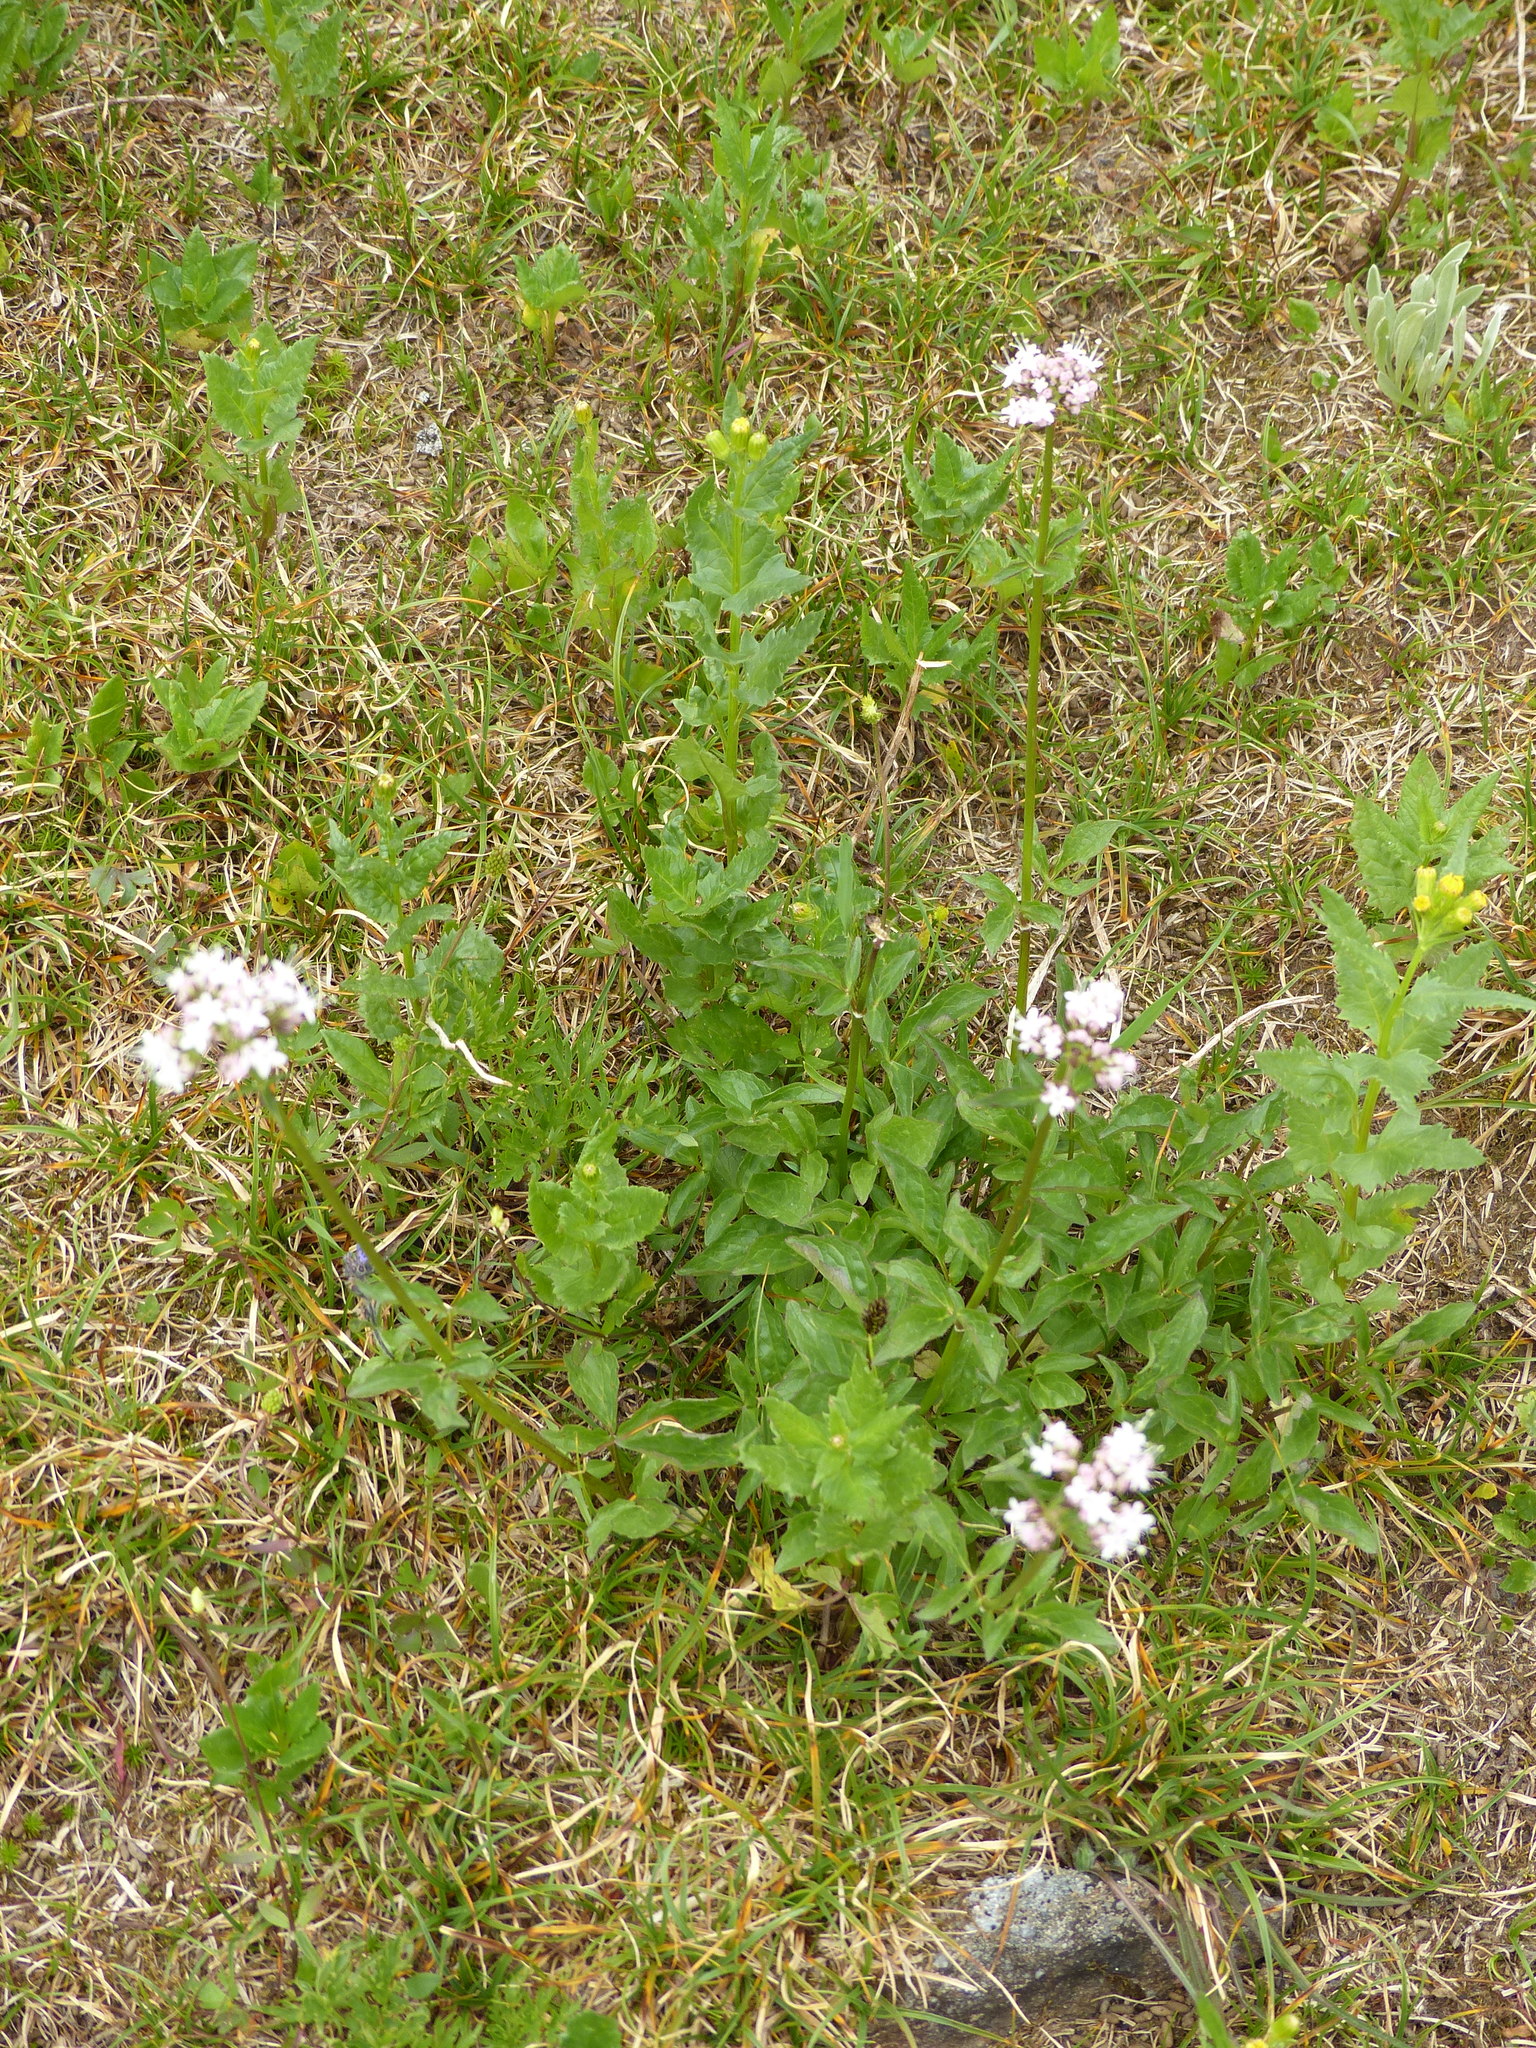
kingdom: Plantae
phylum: Tracheophyta
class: Magnoliopsida
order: Dipsacales
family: Caprifoliaceae
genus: Valeriana
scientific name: Valeriana sitchensis
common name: Pacific valerian
